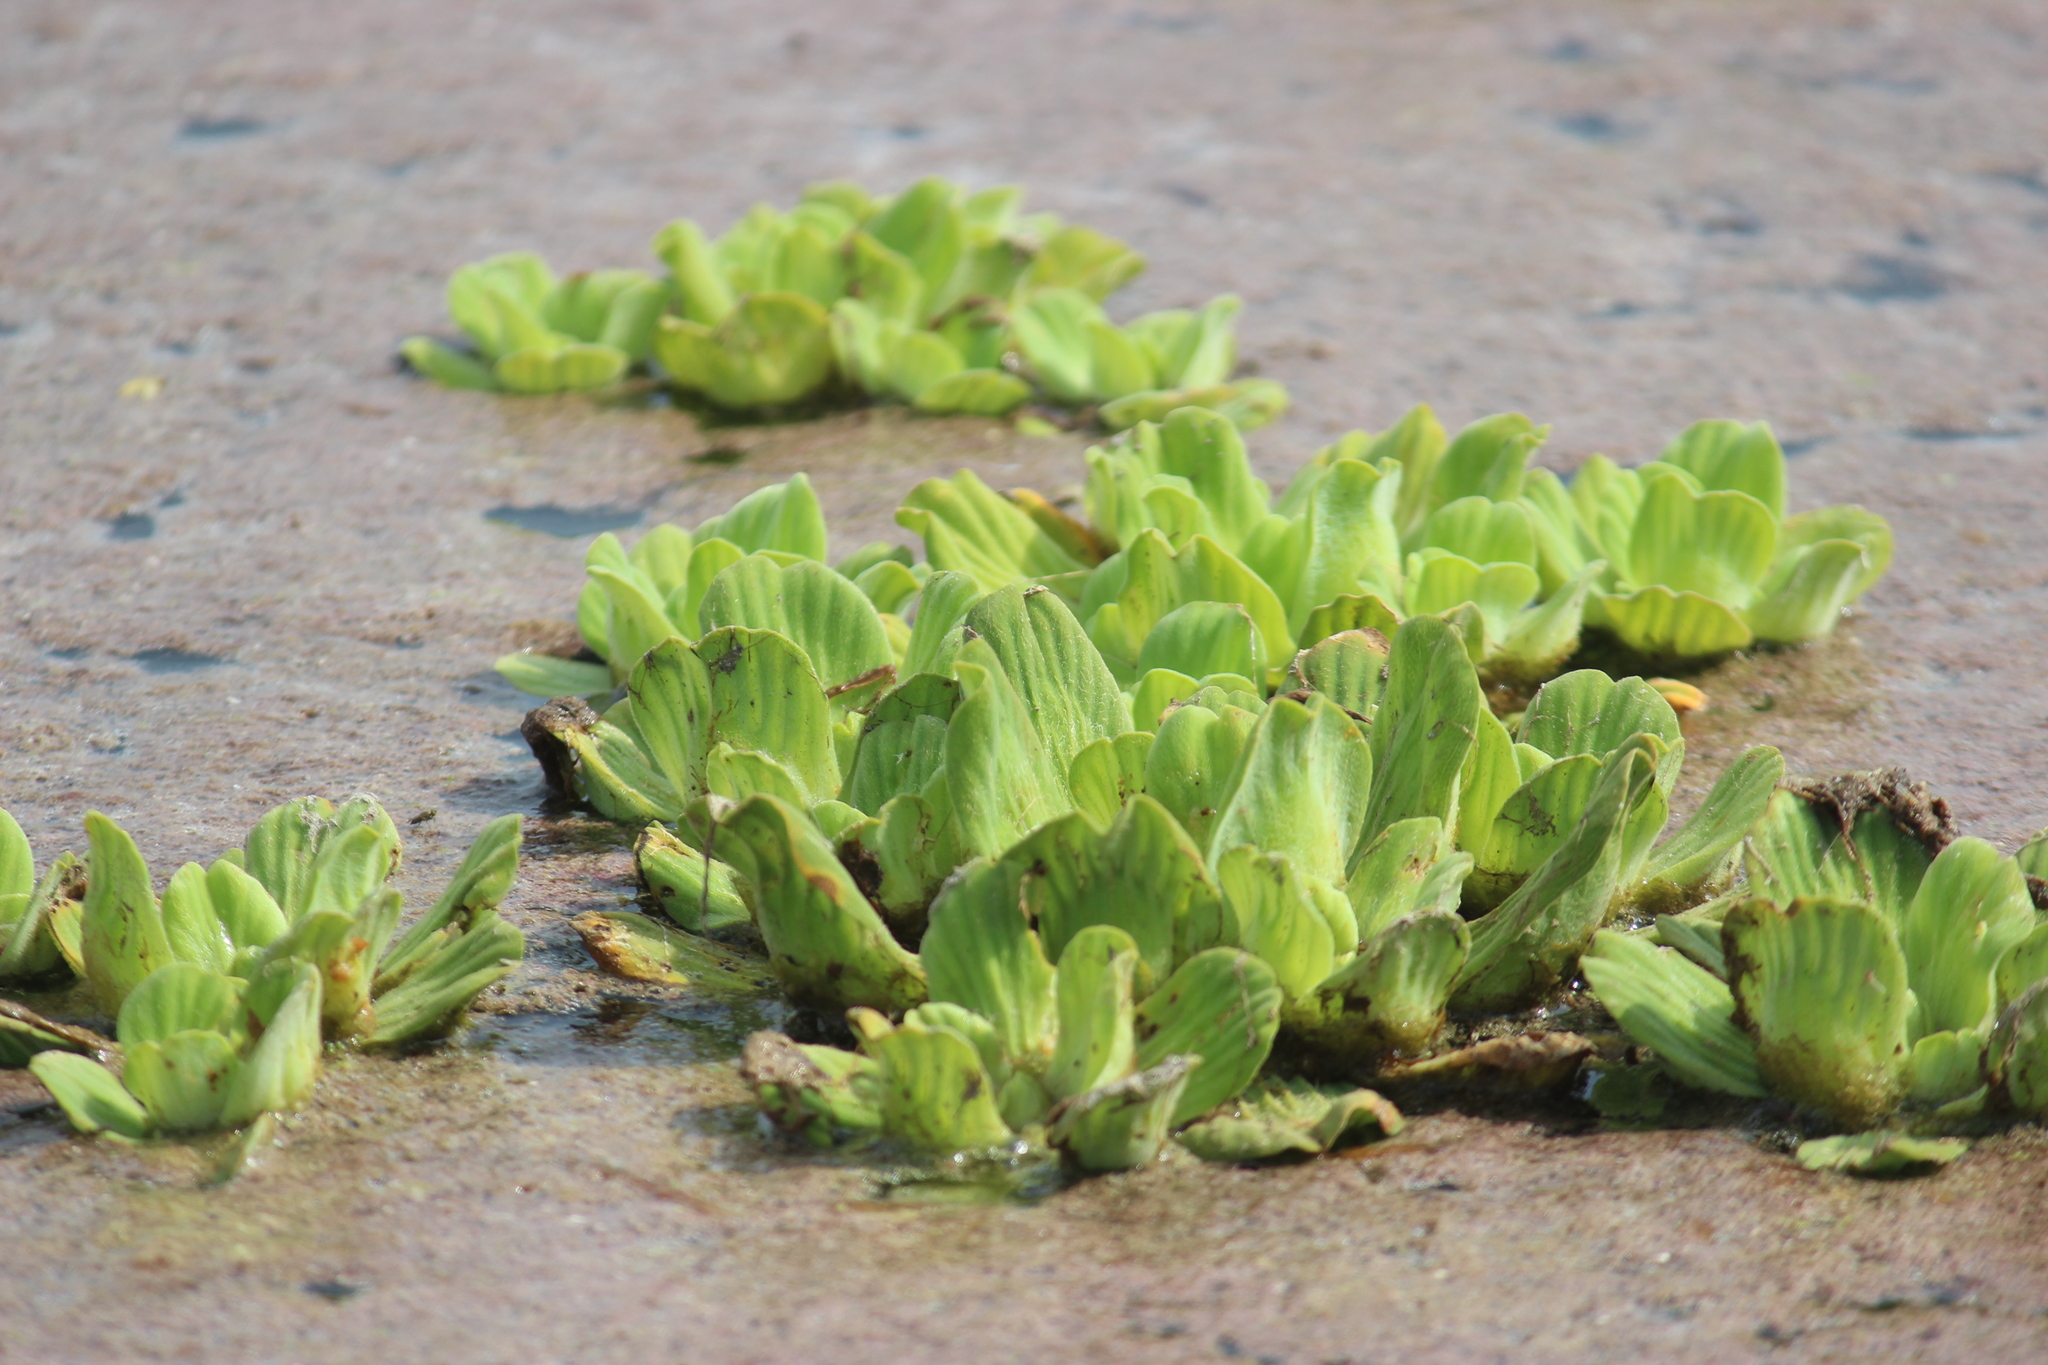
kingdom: Plantae
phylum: Tracheophyta
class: Liliopsida
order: Alismatales
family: Araceae
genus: Pistia
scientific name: Pistia stratiotes
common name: Water lettuce
